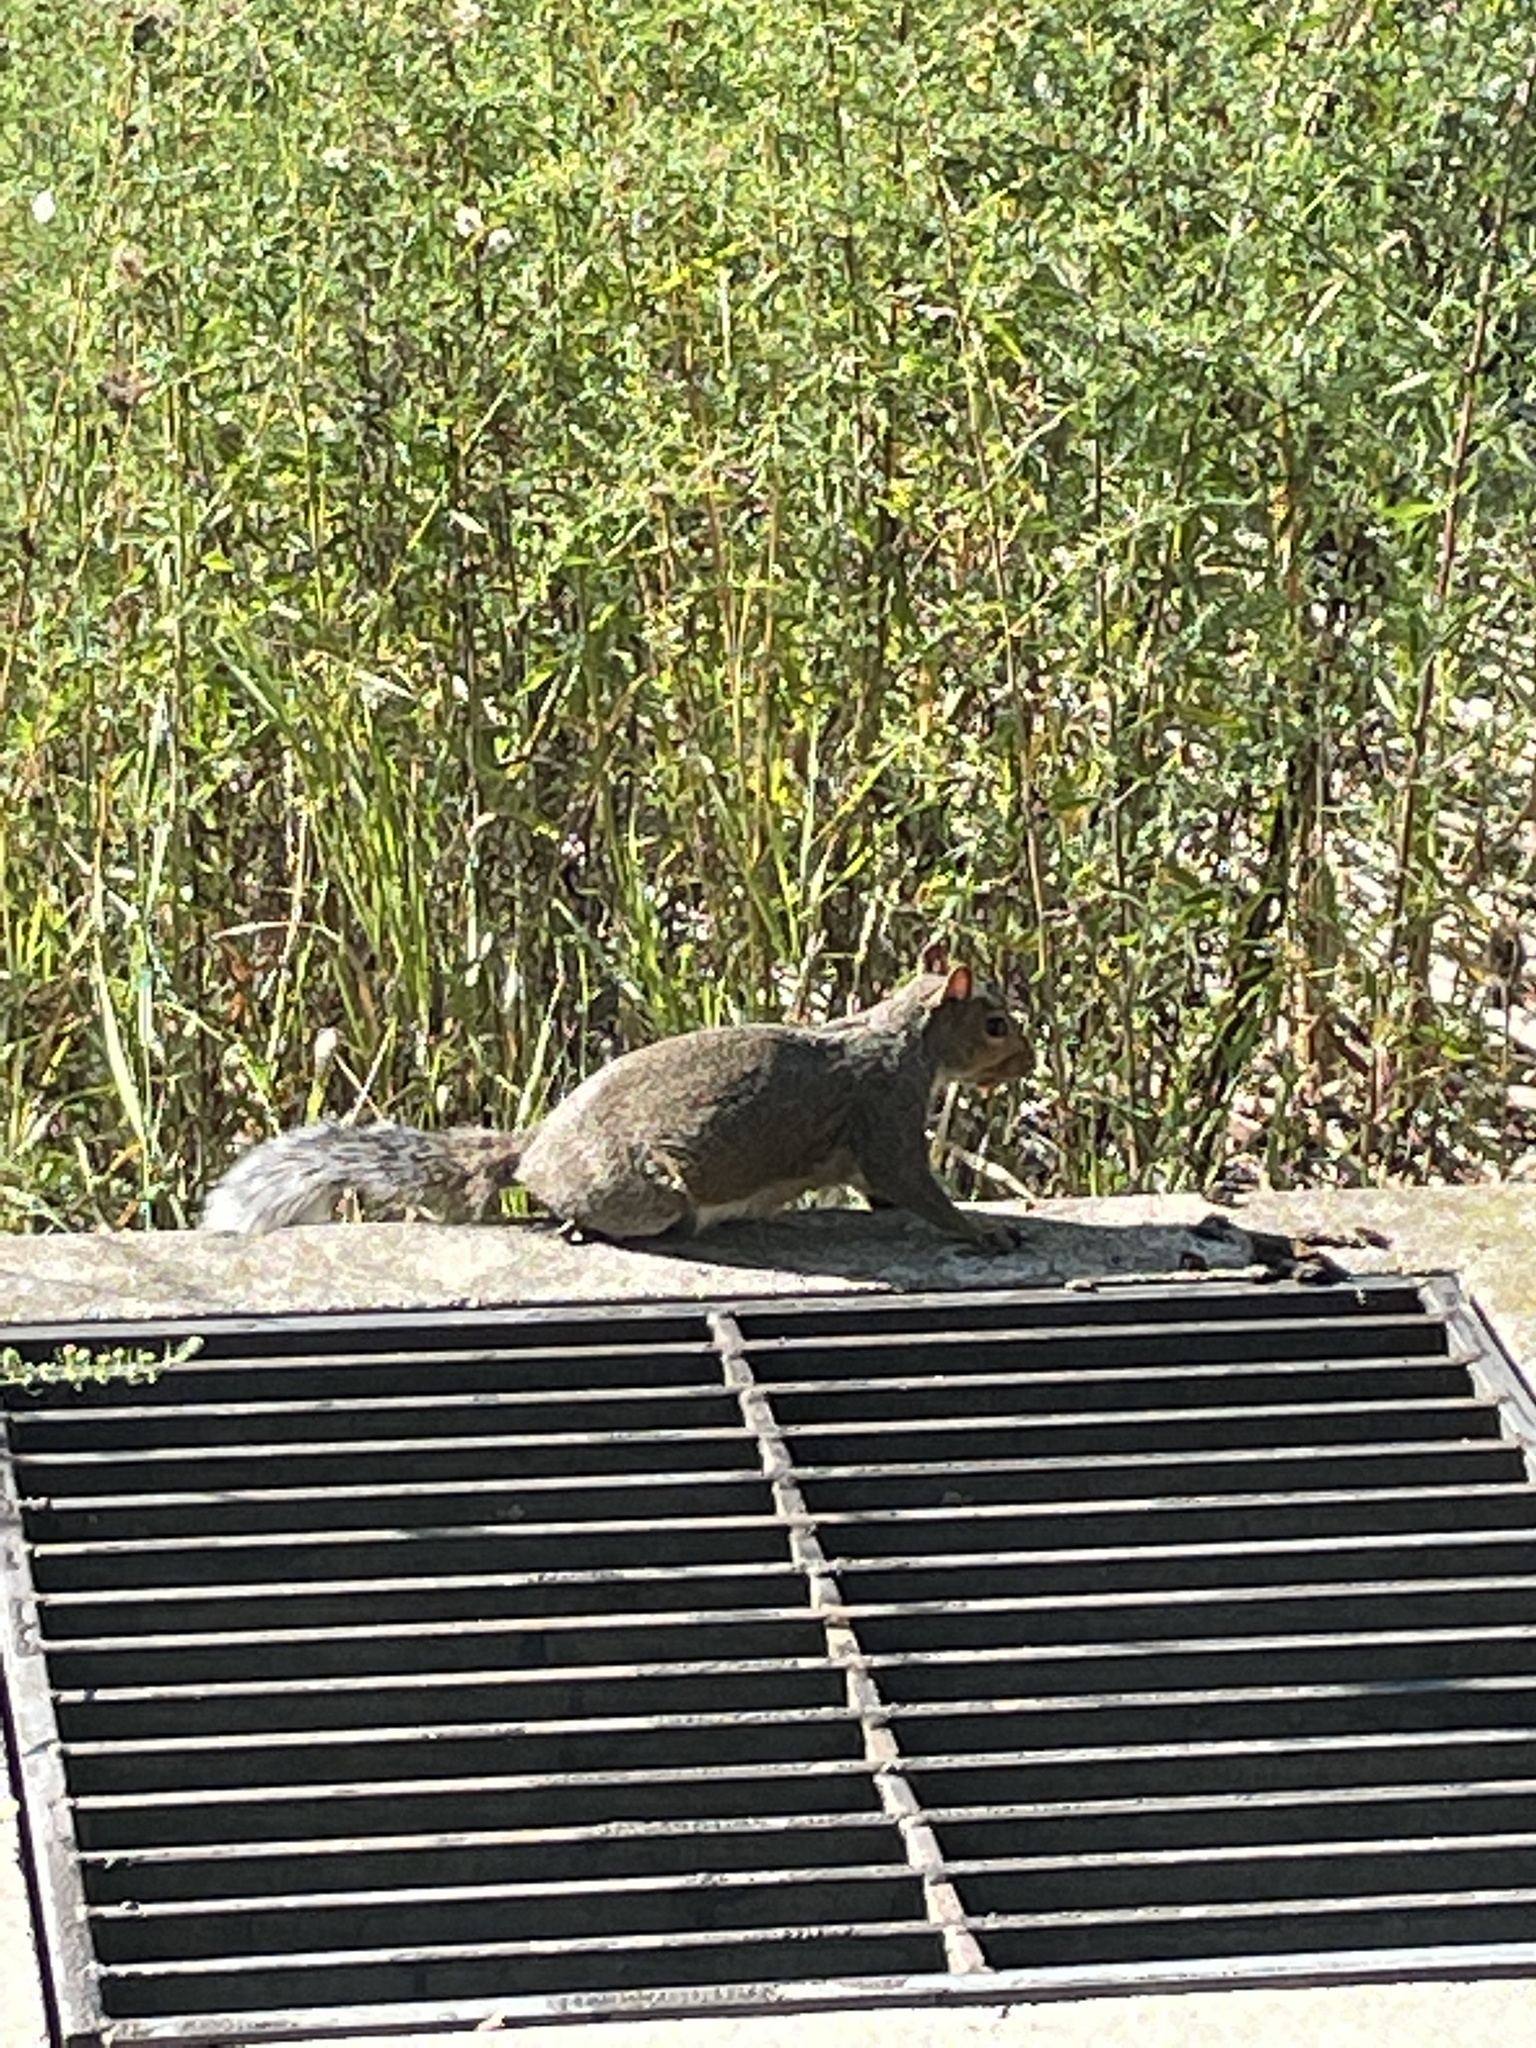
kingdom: Animalia
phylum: Chordata
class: Mammalia
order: Rodentia
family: Sciuridae
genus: Sciurus
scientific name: Sciurus carolinensis
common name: Eastern gray squirrel
